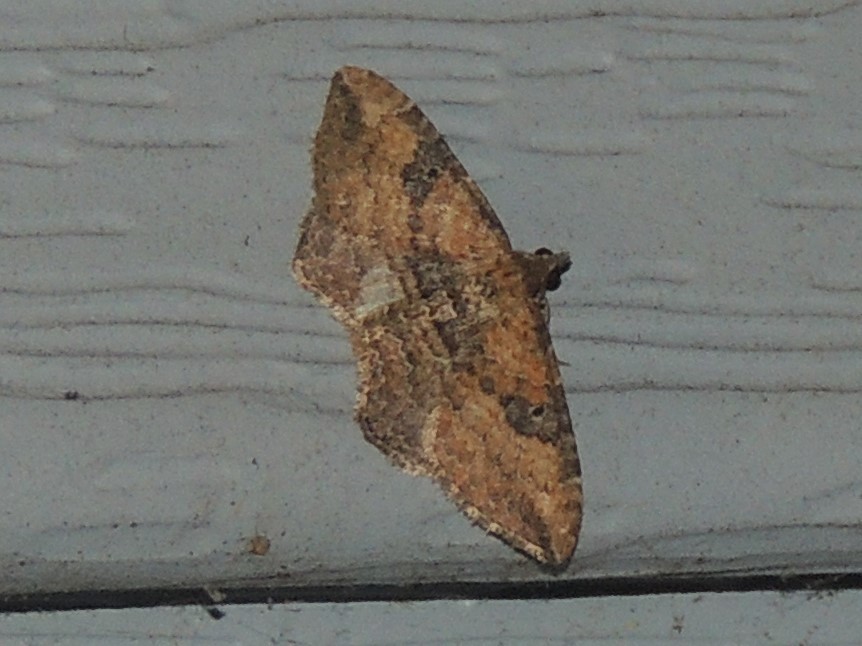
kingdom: Animalia
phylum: Arthropoda
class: Insecta
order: Lepidoptera
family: Geometridae
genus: Orthonama
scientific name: Orthonama obstipata
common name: The gem
